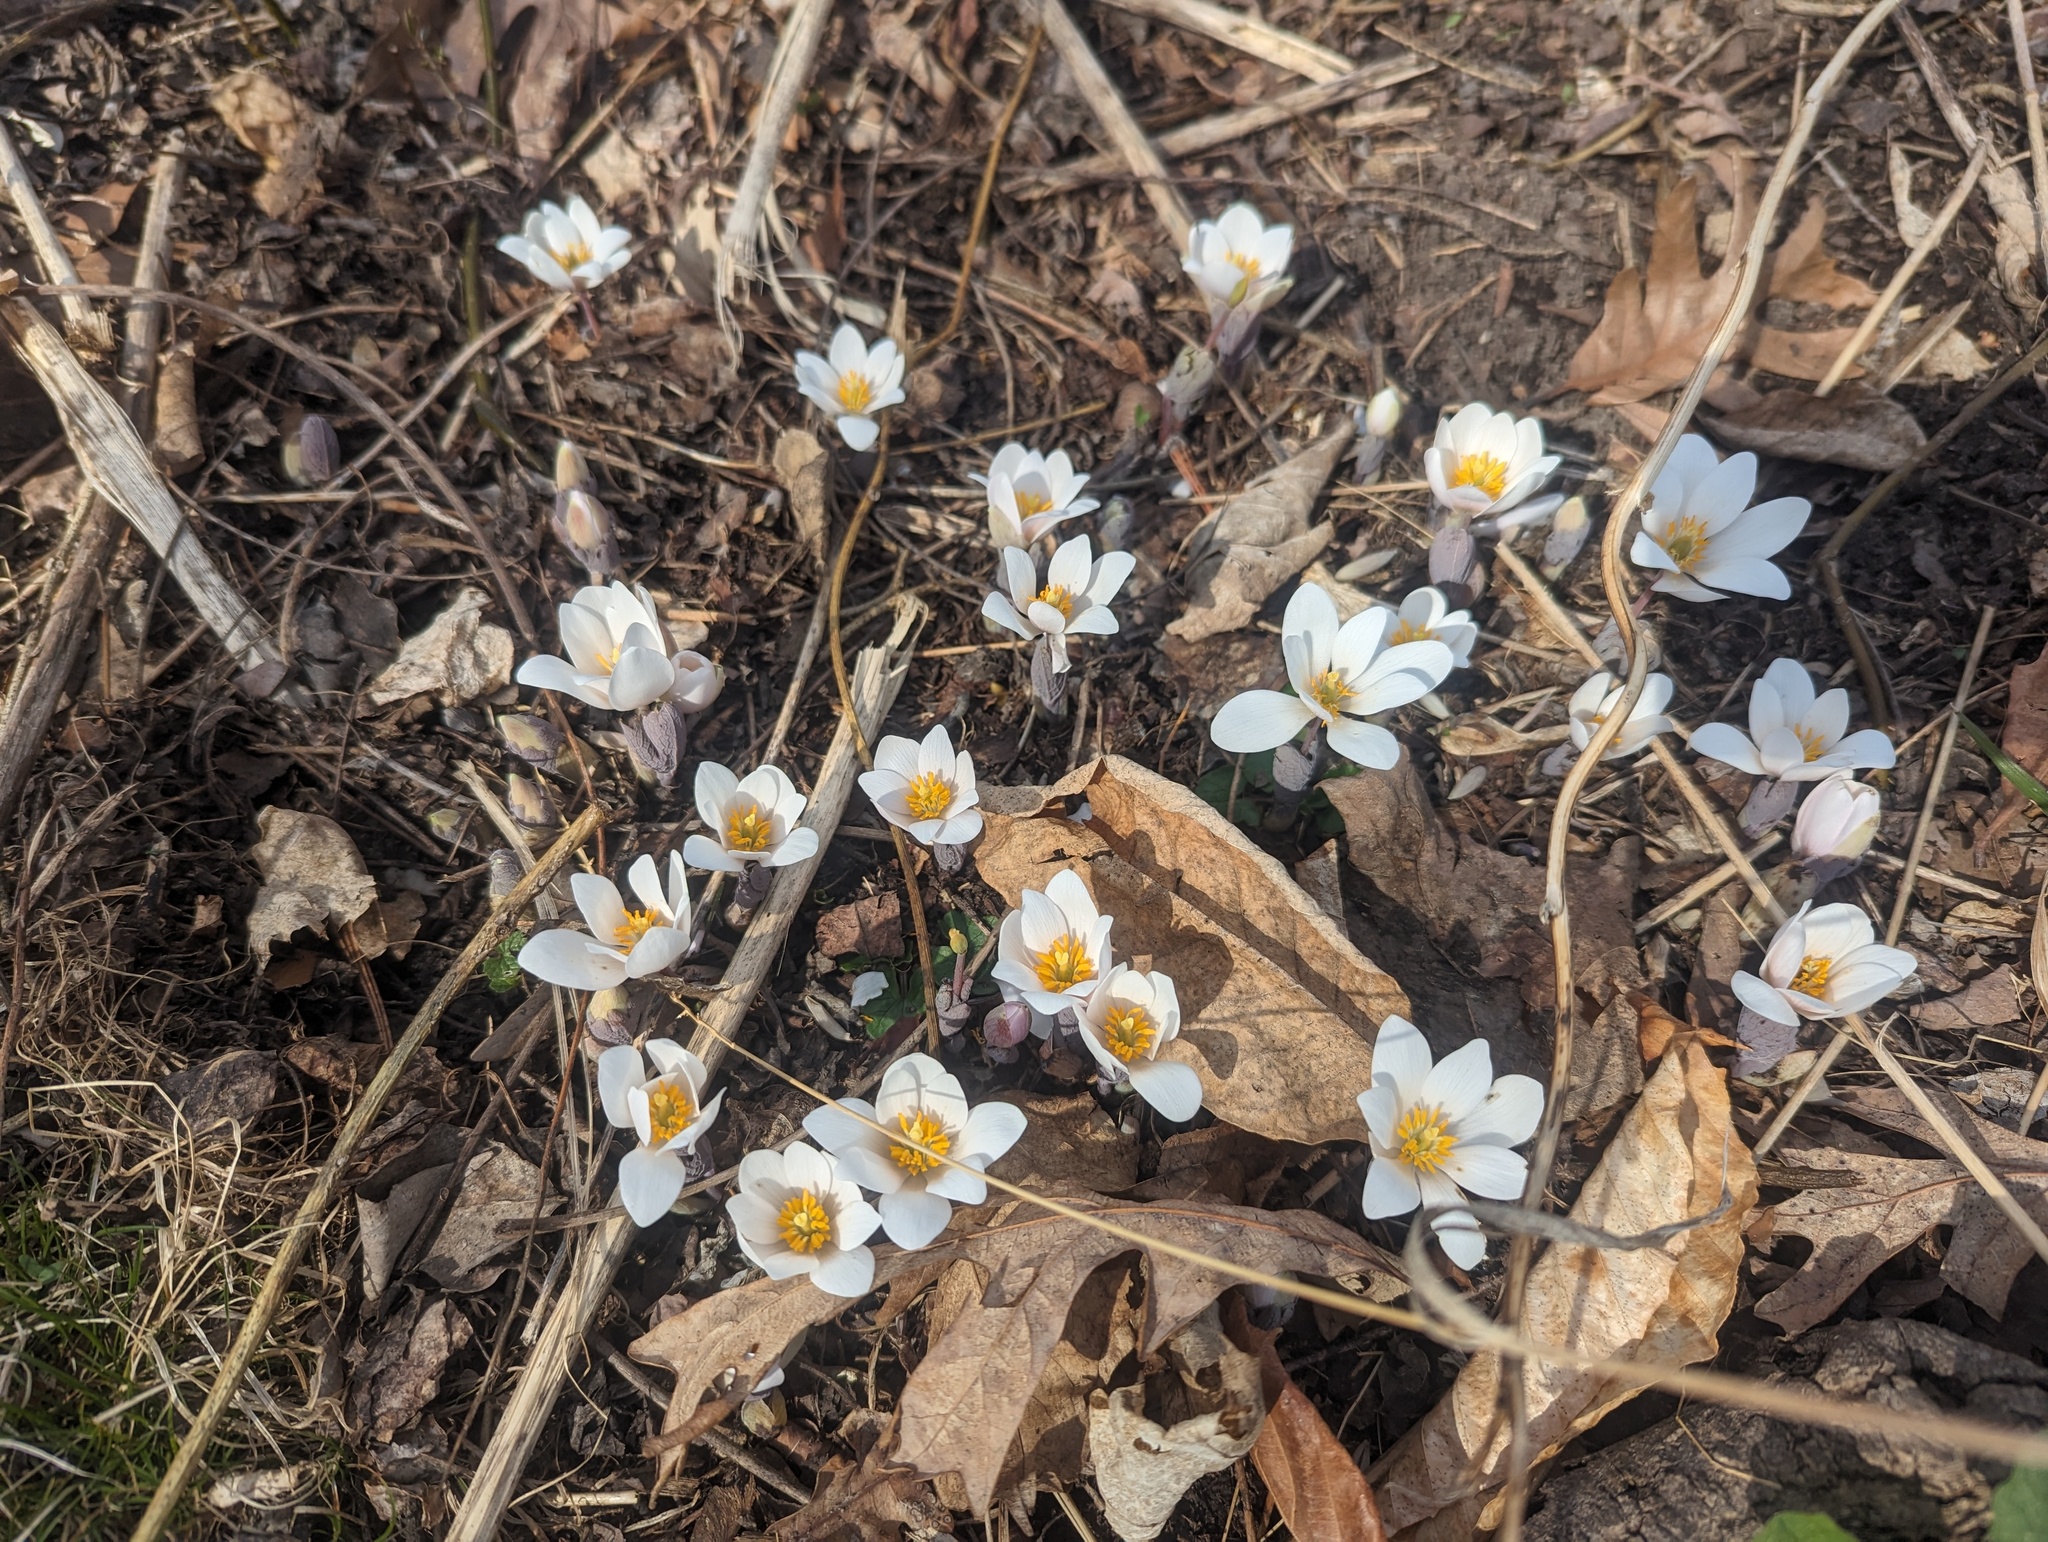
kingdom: Plantae
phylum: Tracheophyta
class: Magnoliopsida
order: Ranunculales
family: Papaveraceae
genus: Sanguinaria
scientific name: Sanguinaria canadensis
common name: Bloodroot
